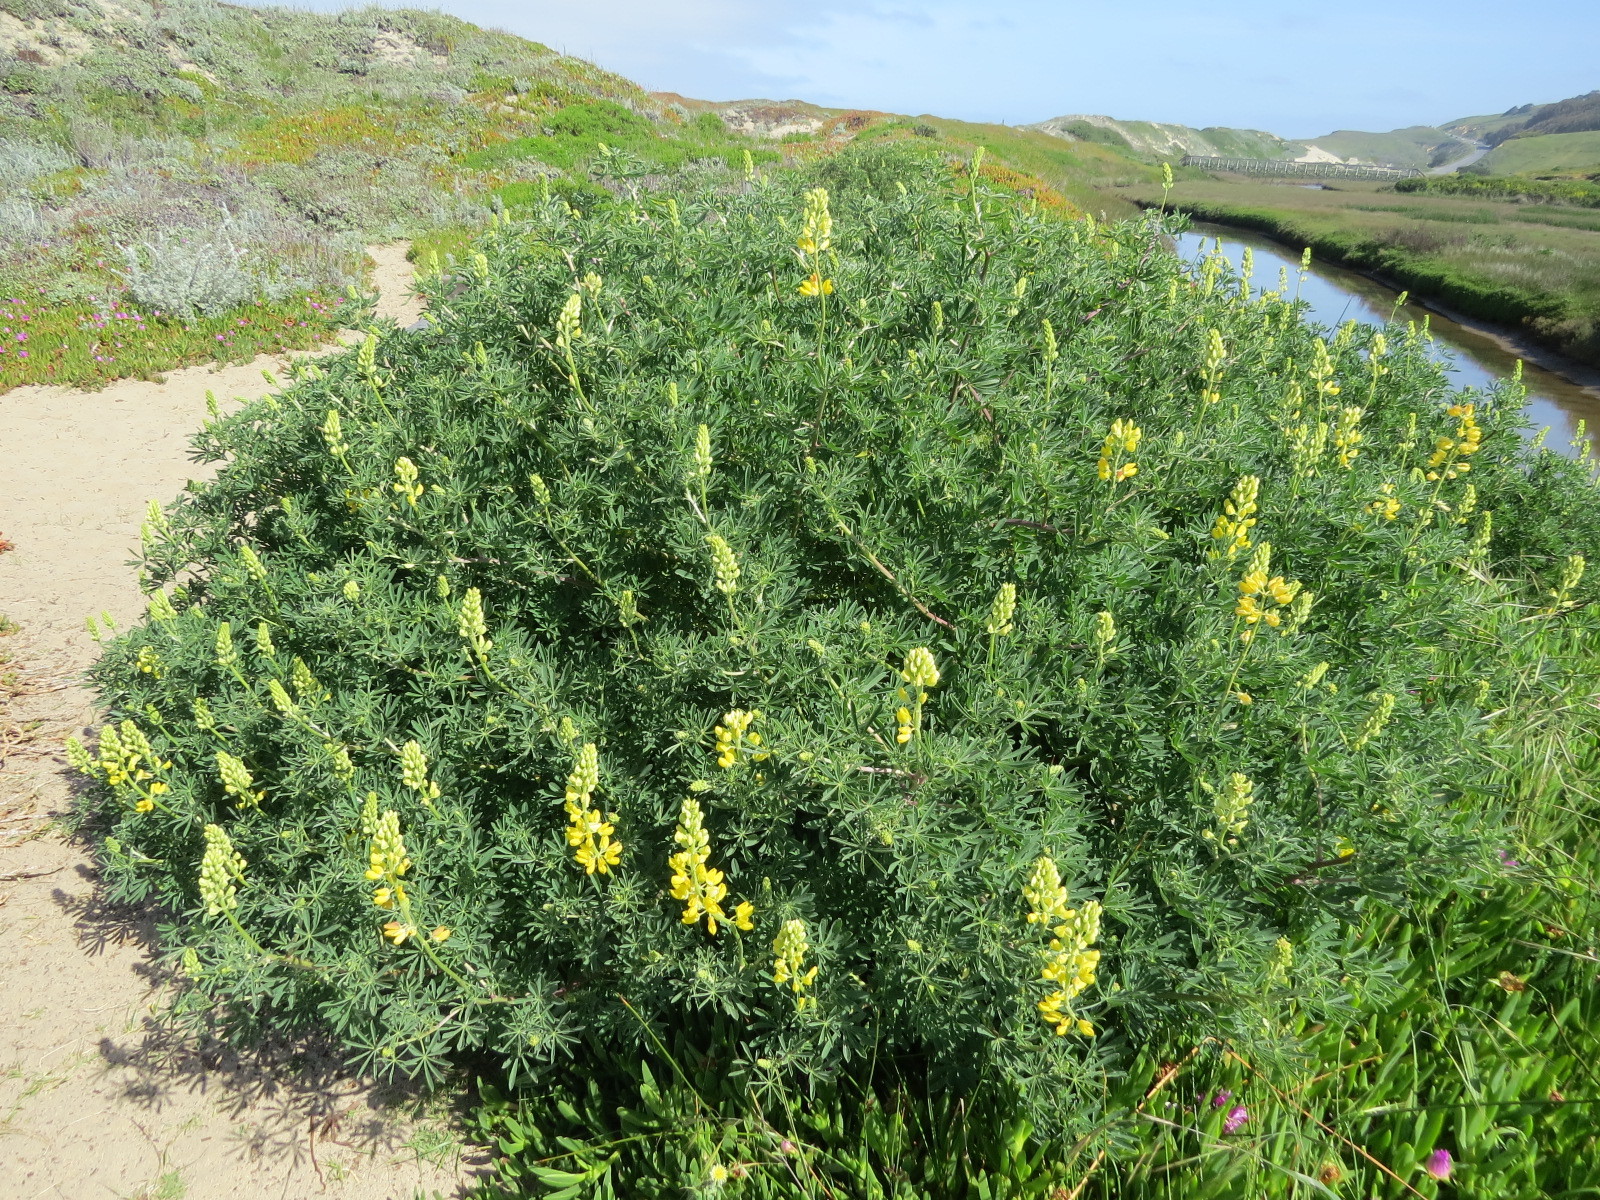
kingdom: Plantae
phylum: Tracheophyta
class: Magnoliopsida
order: Fabales
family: Fabaceae
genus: Lupinus
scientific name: Lupinus arboreus
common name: Yellow bush lupine
